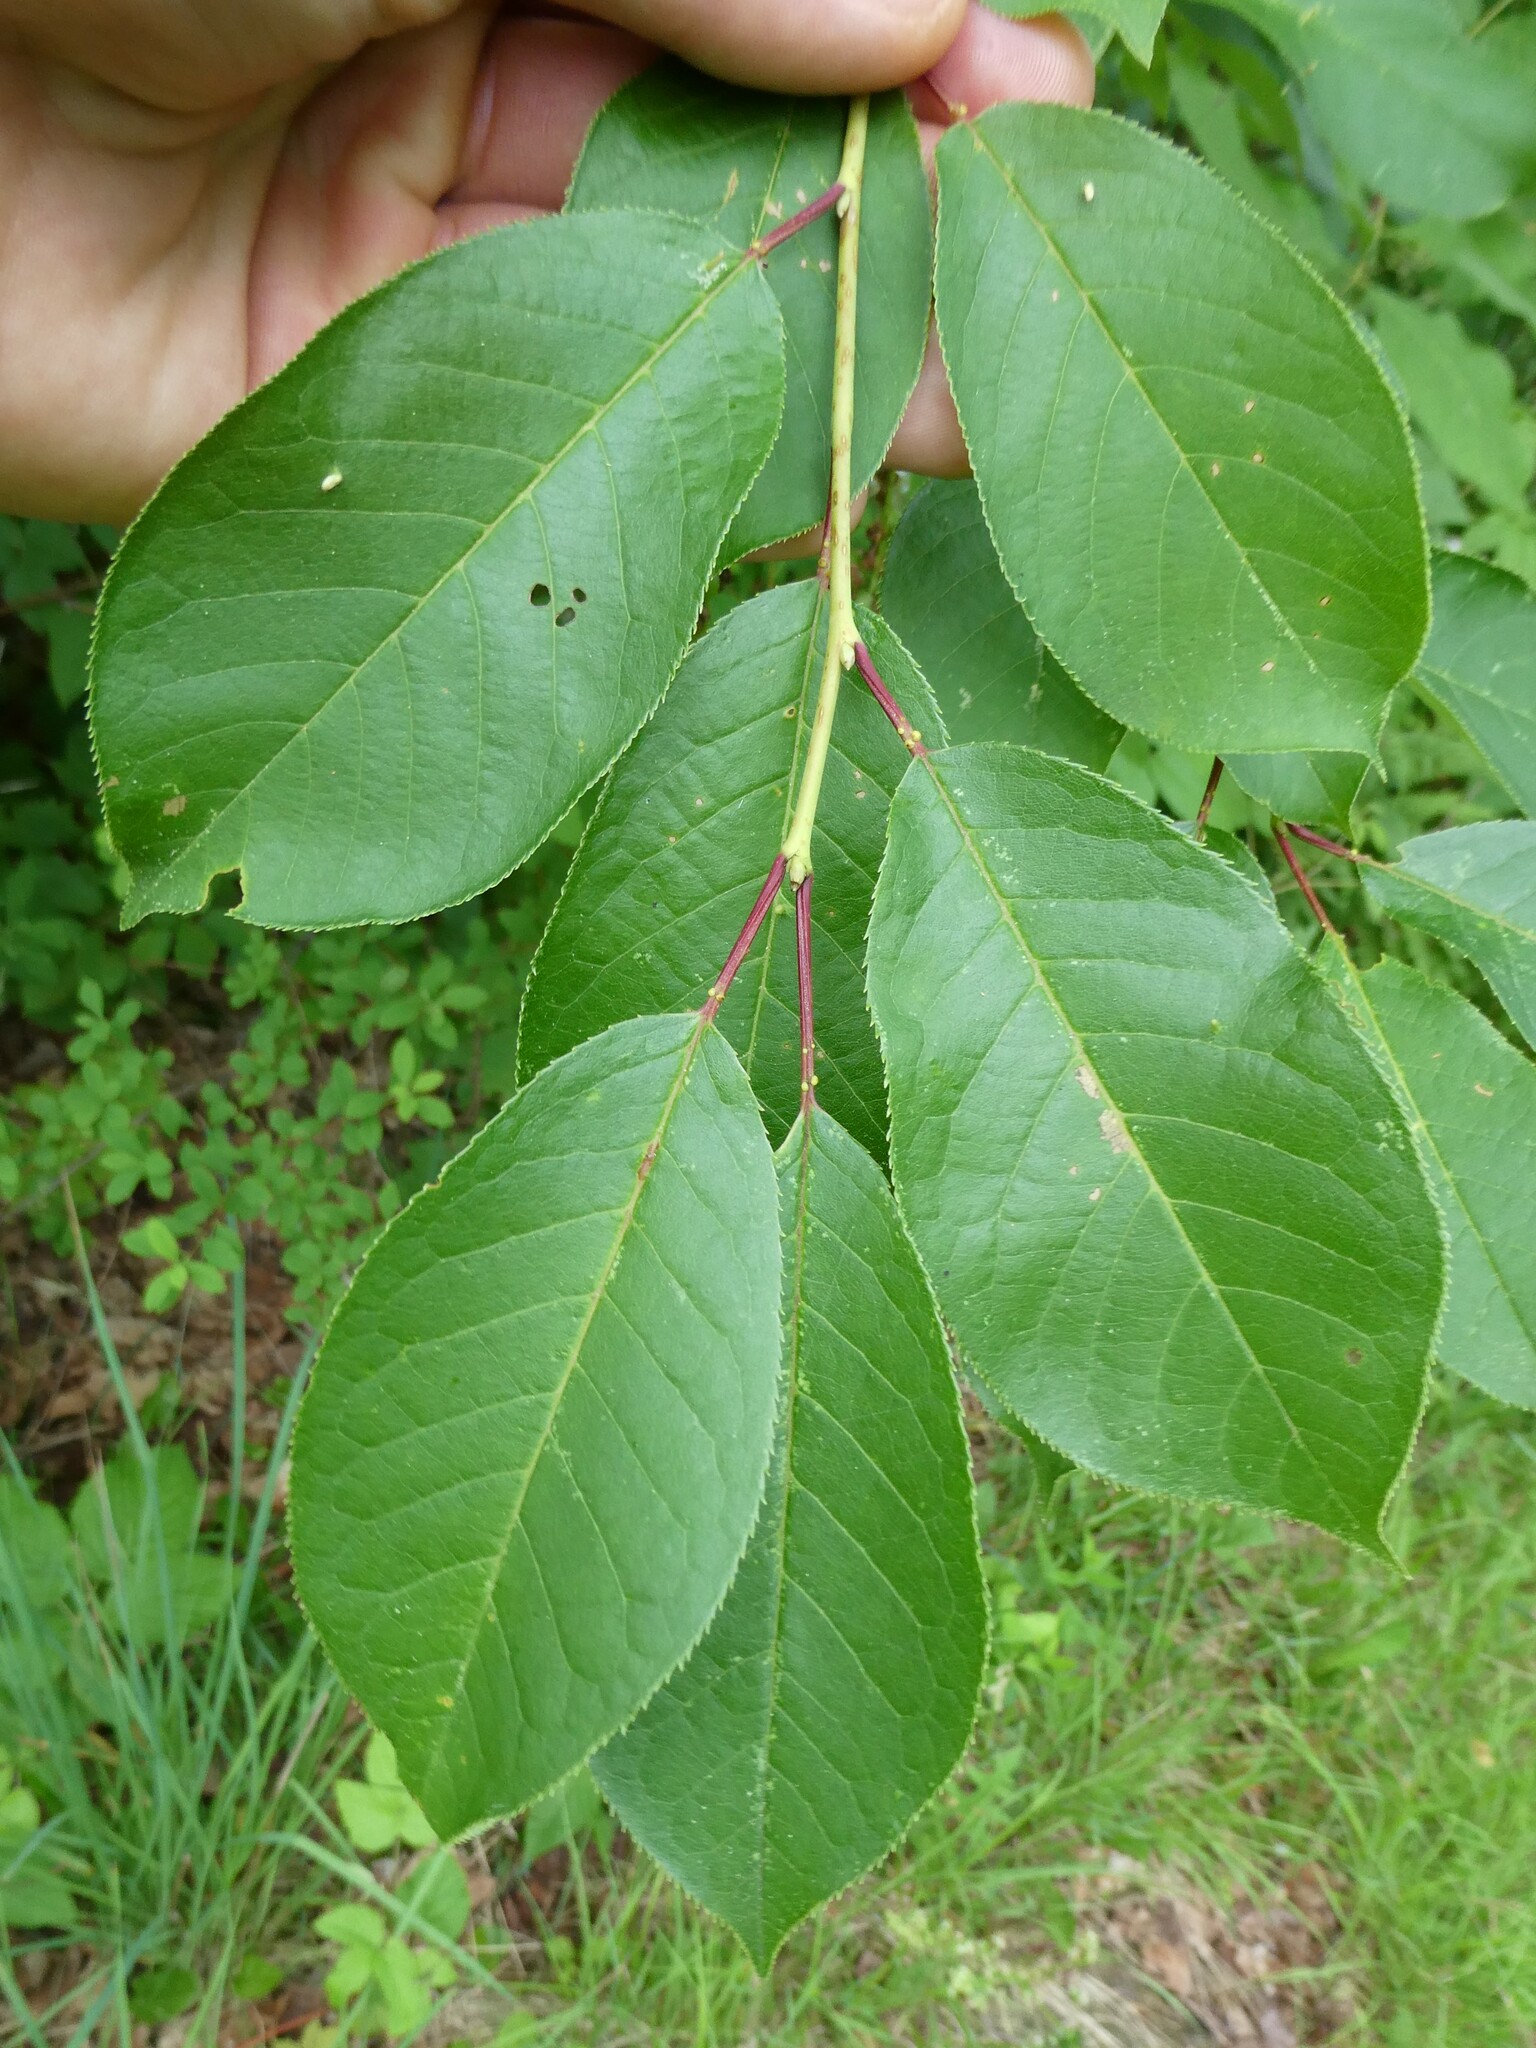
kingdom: Plantae
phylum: Tracheophyta
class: Magnoliopsida
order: Rosales
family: Rosaceae
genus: Prunus
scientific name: Prunus virginiana
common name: Chokecherry
